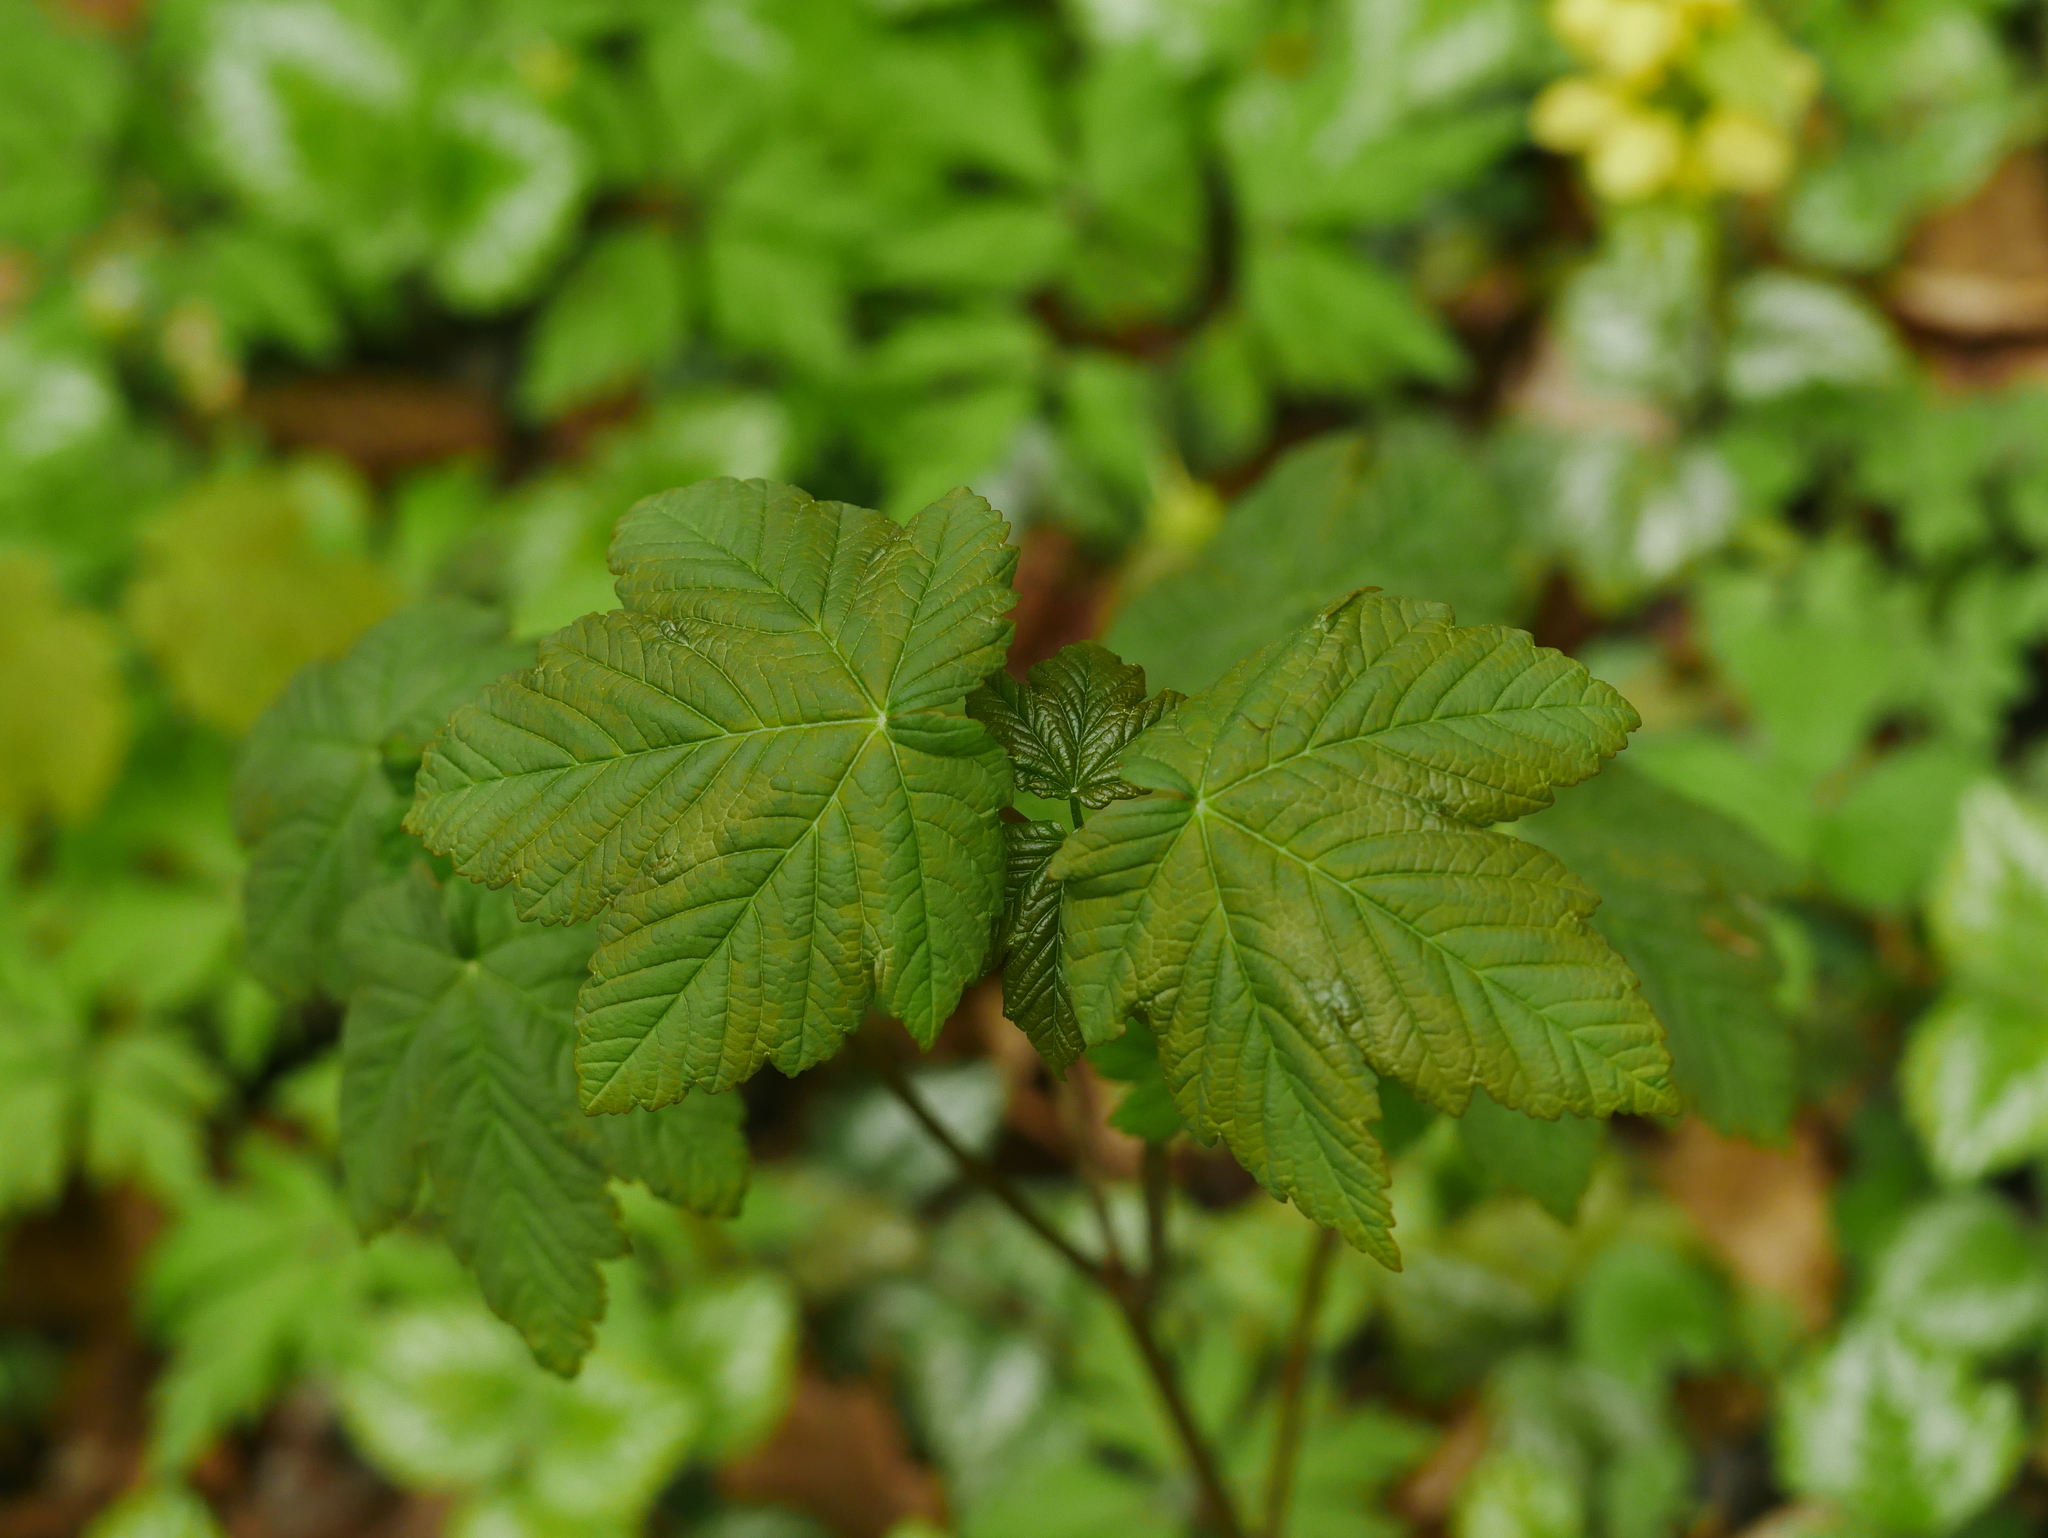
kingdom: Plantae
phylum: Tracheophyta
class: Magnoliopsida
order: Sapindales
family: Sapindaceae
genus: Acer
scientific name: Acer pseudoplatanus
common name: Sycamore
